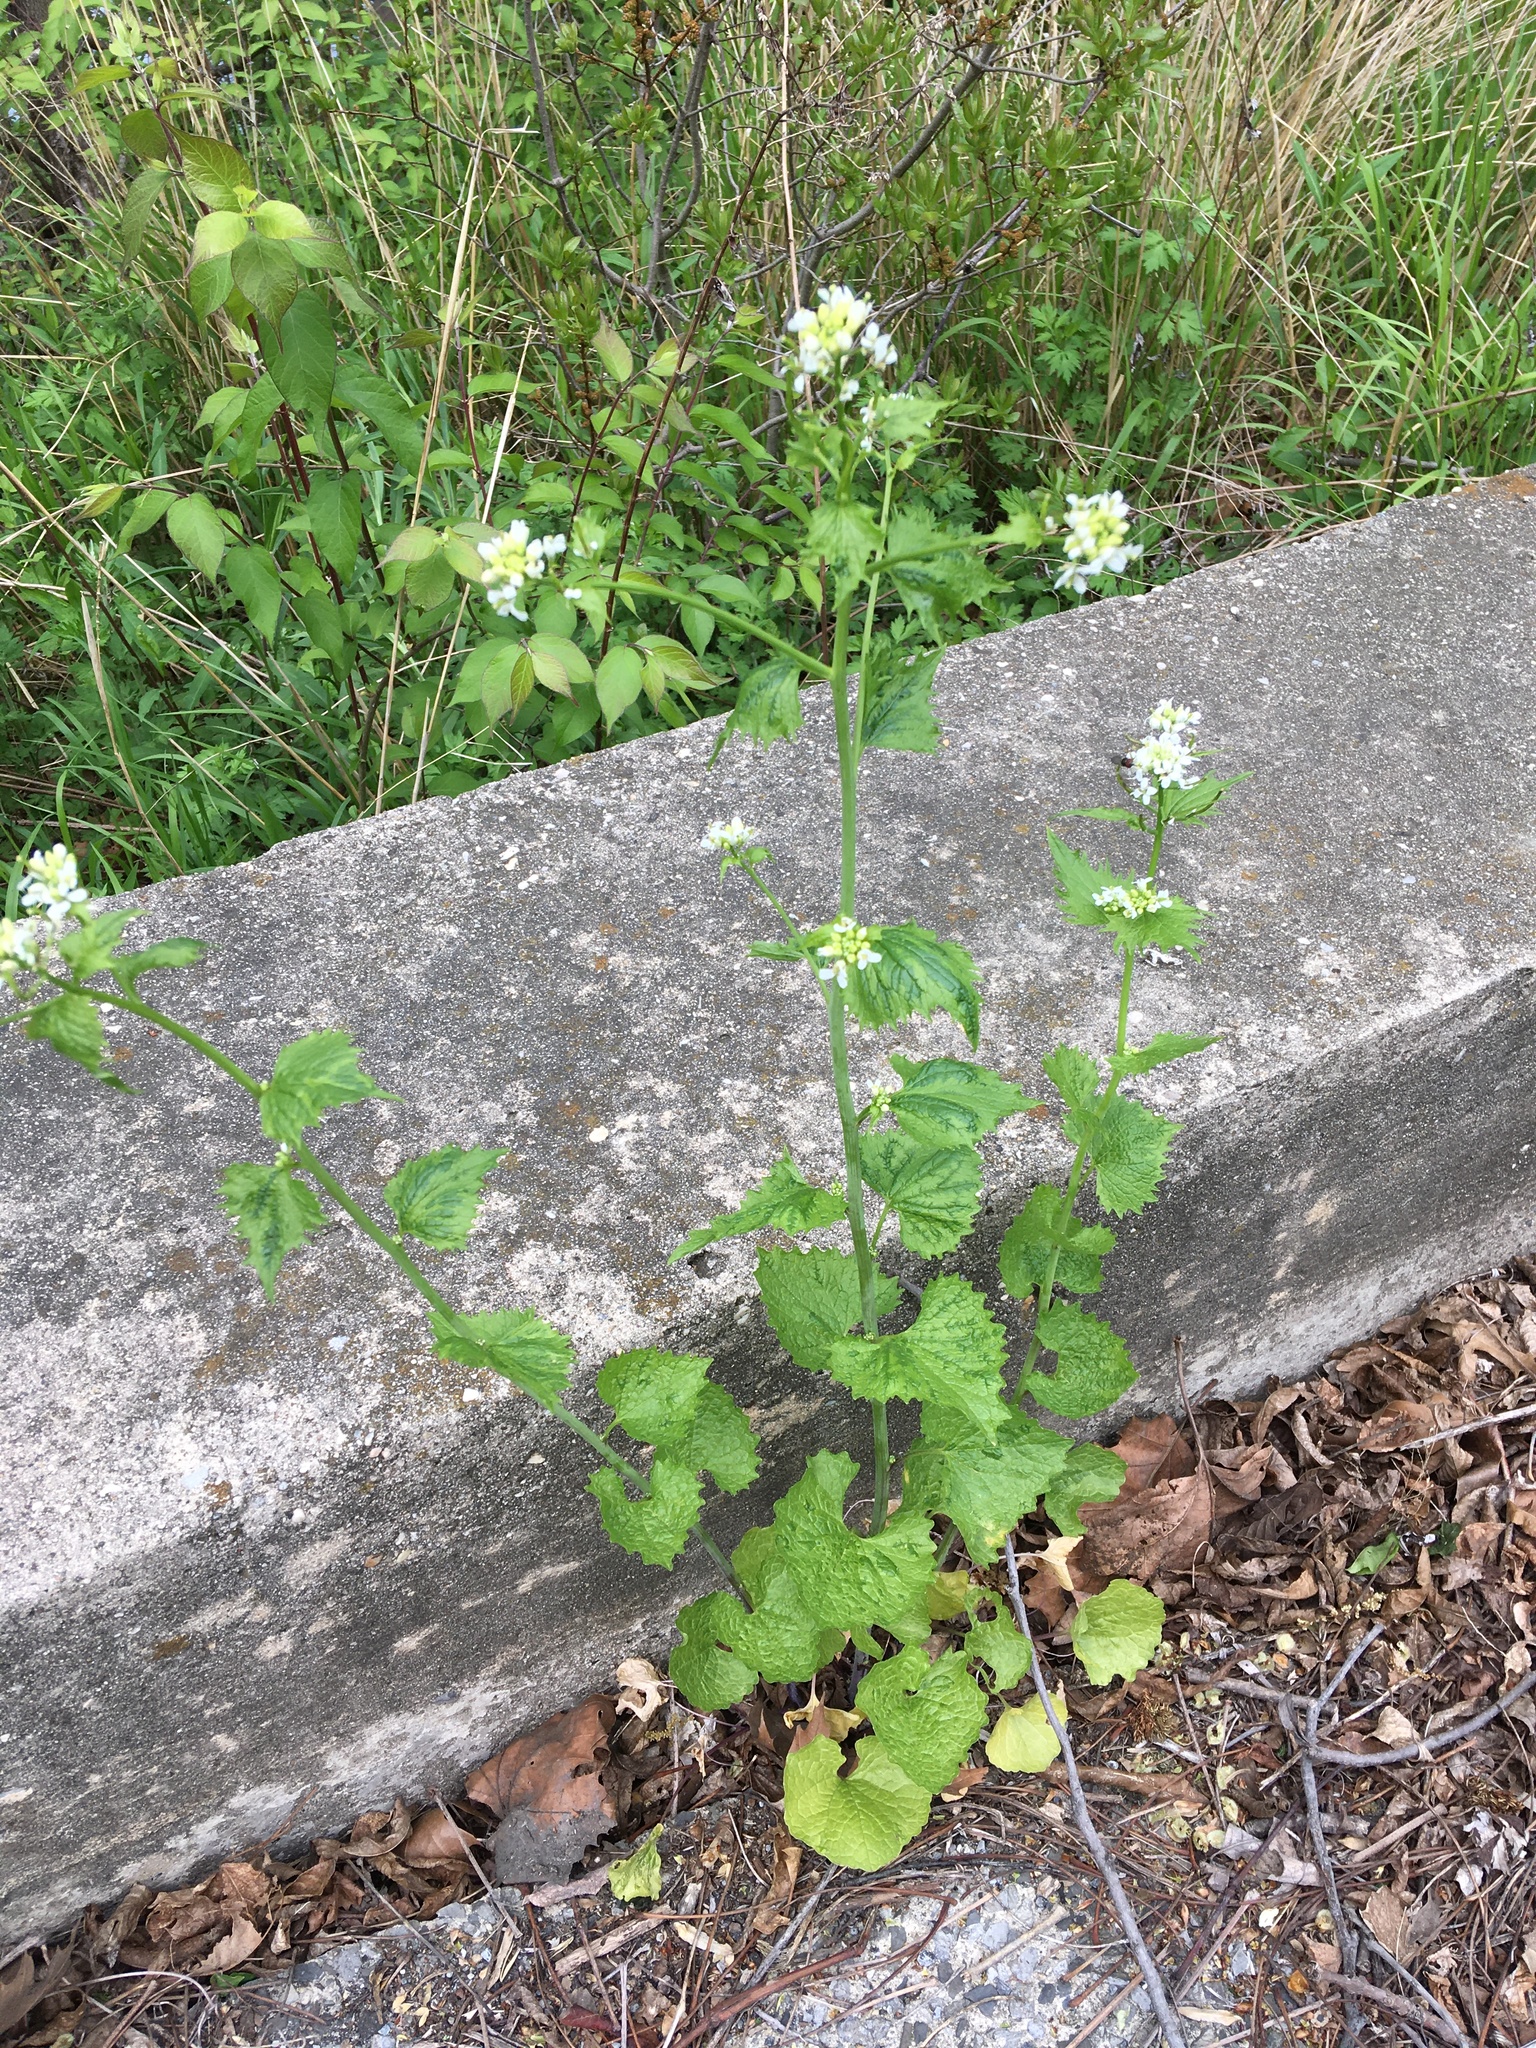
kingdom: Plantae
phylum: Tracheophyta
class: Magnoliopsida
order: Brassicales
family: Brassicaceae
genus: Alliaria
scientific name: Alliaria petiolata
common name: Garlic mustard
